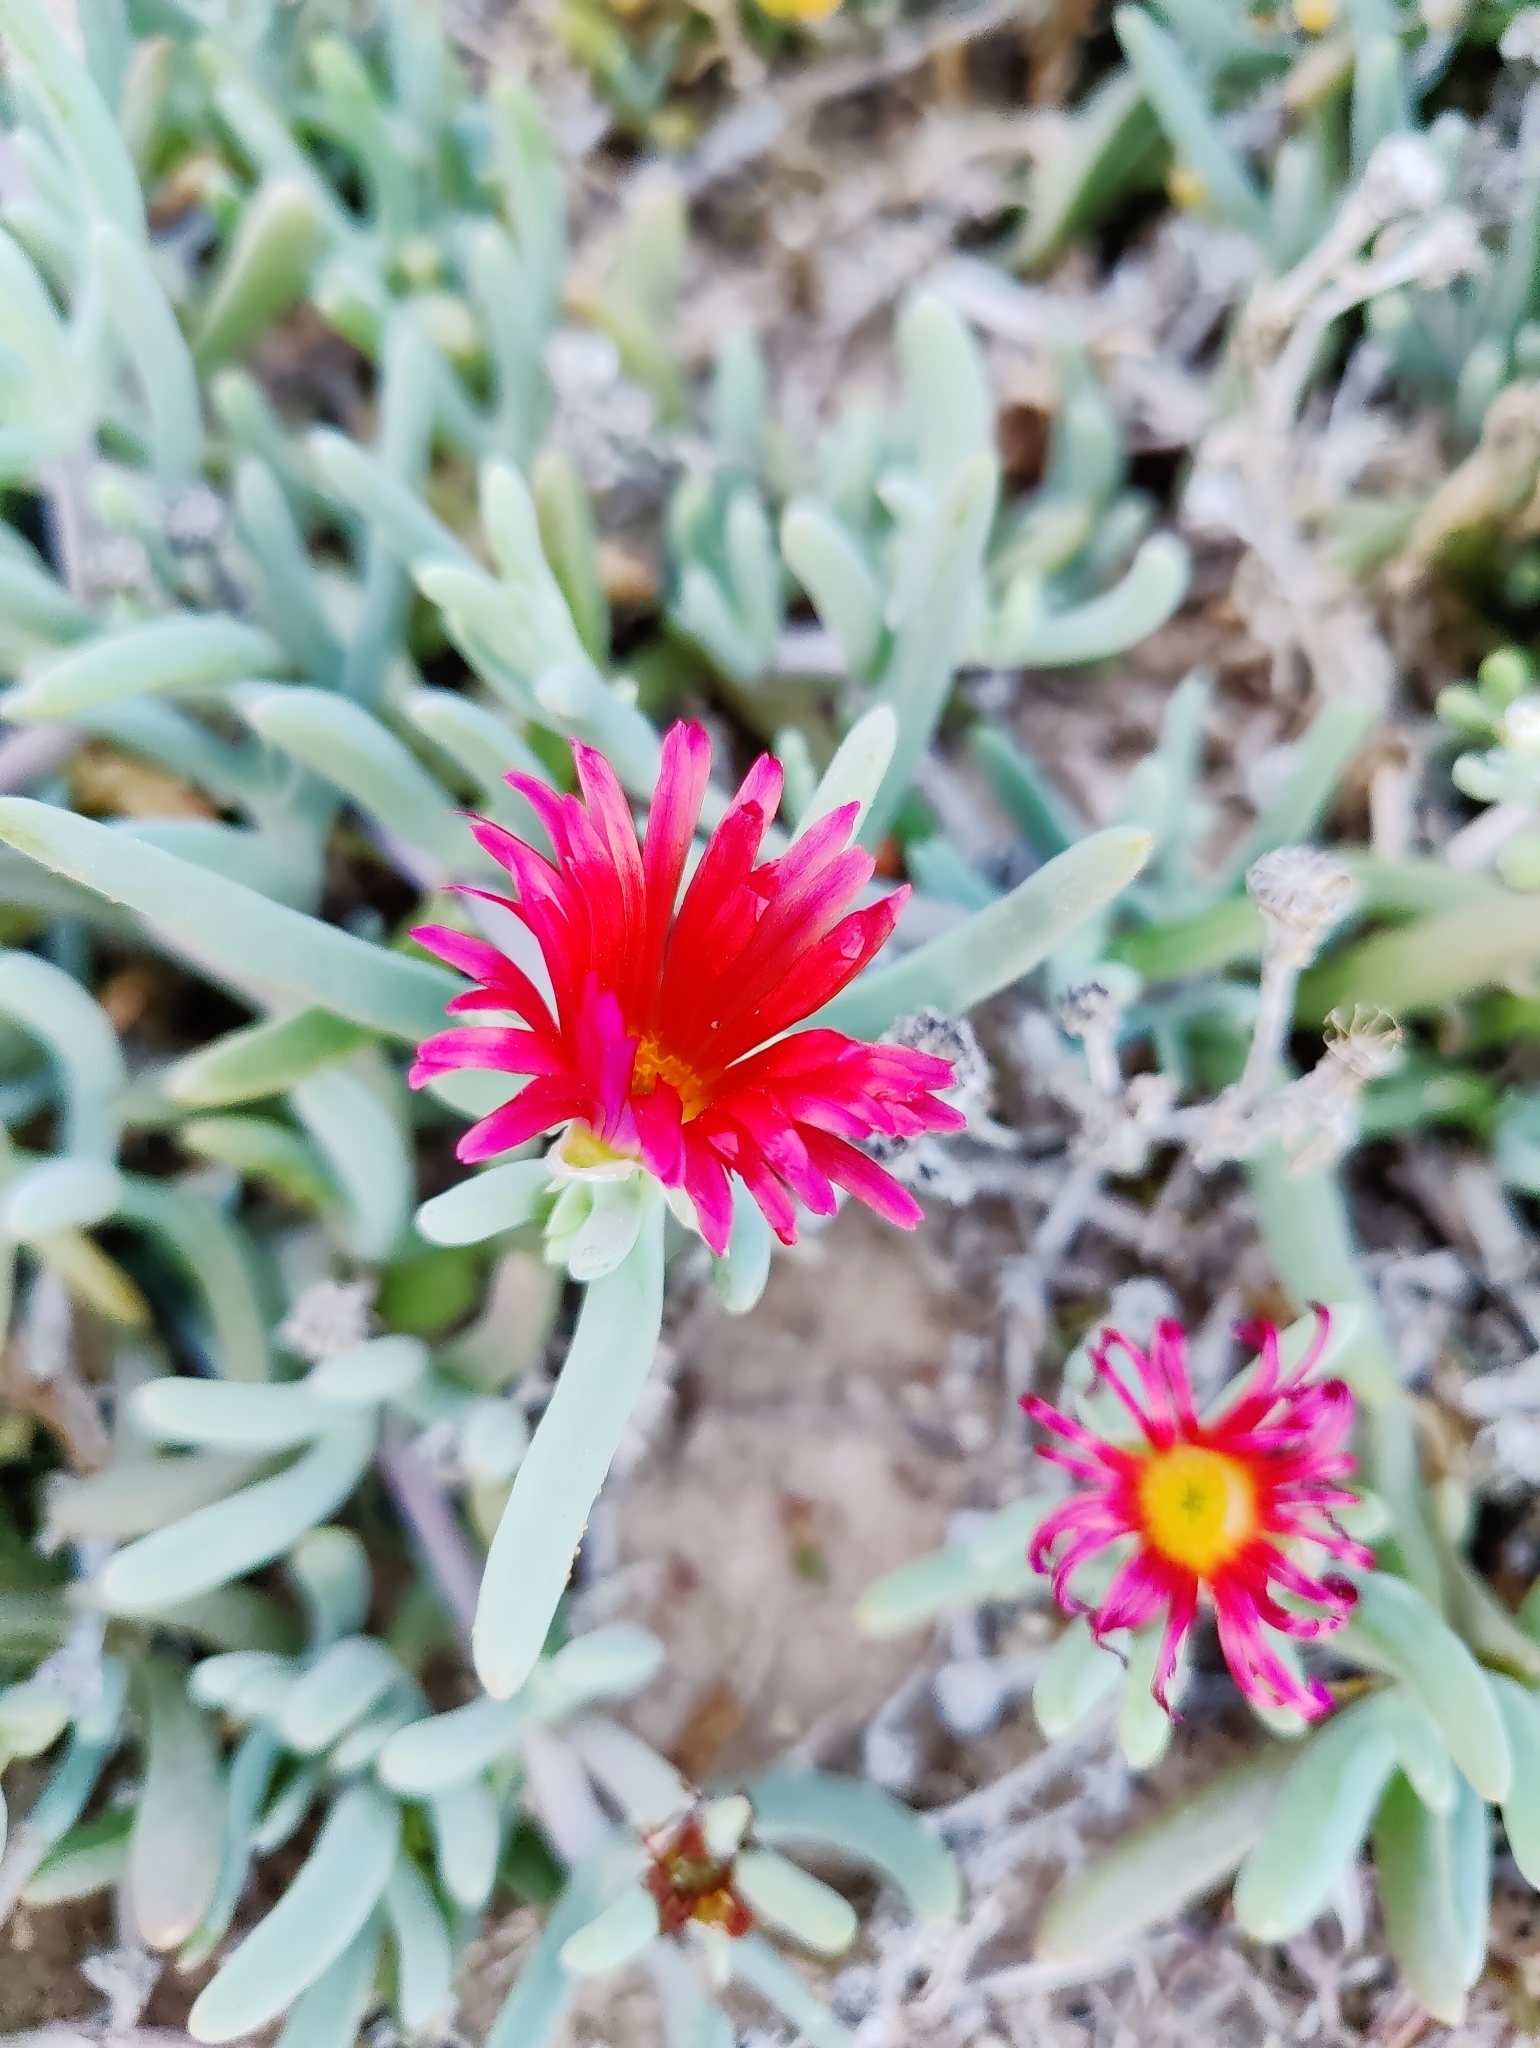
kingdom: Plantae
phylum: Tracheophyta
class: Magnoliopsida
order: Caryophyllales
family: Aizoaceae
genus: Malephora
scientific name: Malephora crocea
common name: Coppery mesemb
